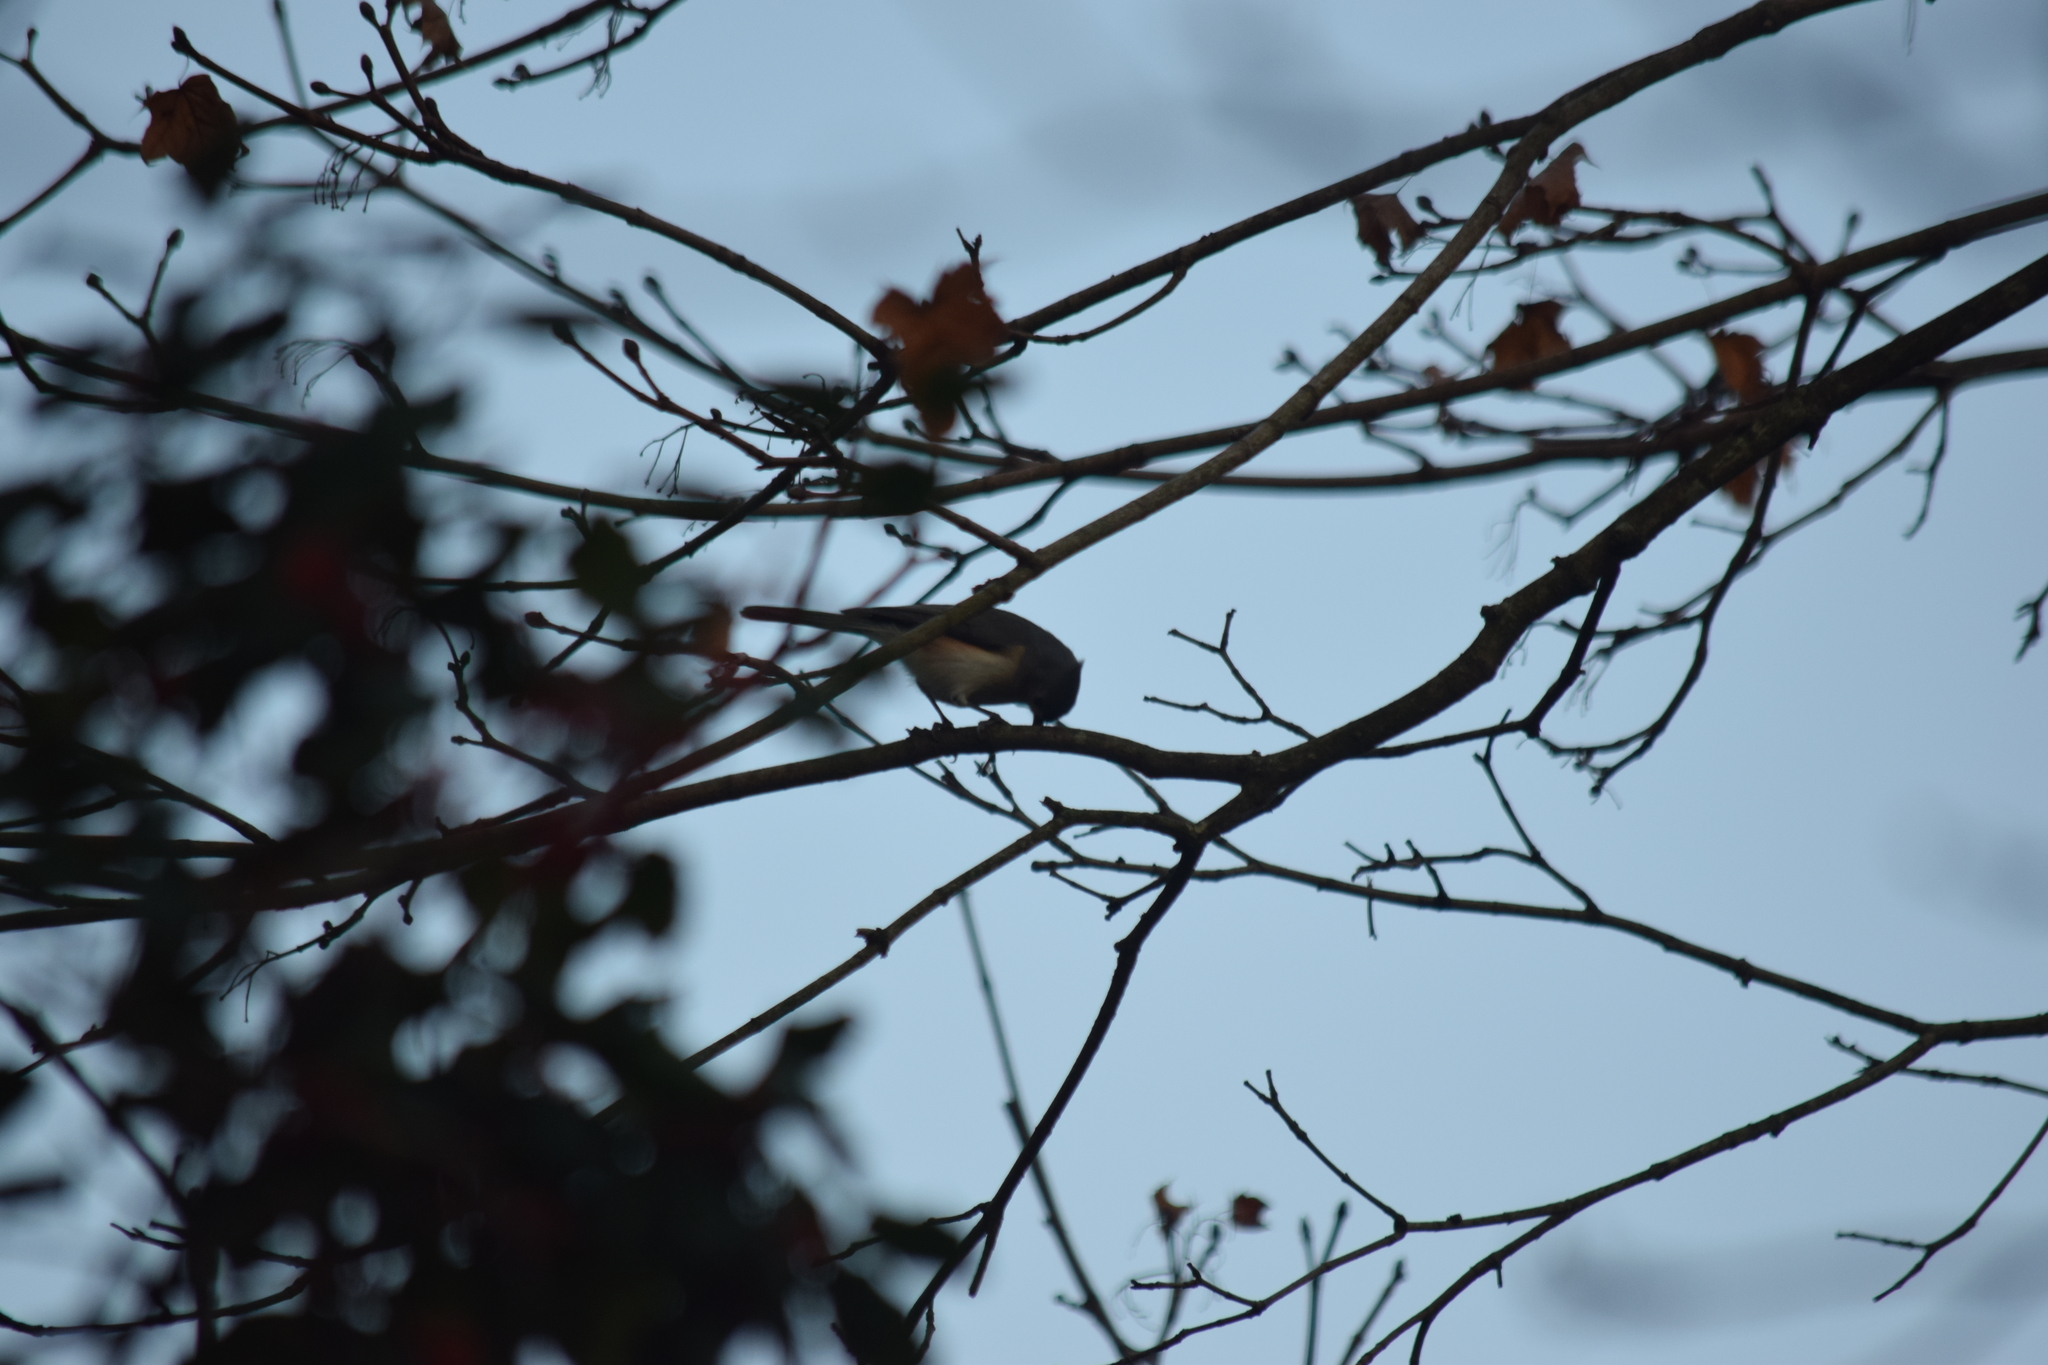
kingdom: Animalia
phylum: Chordata
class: Aves
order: Passeriformes
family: Paridae
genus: Baeolophus
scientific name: Baeolophus bicolor
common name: Tufted titmouse
